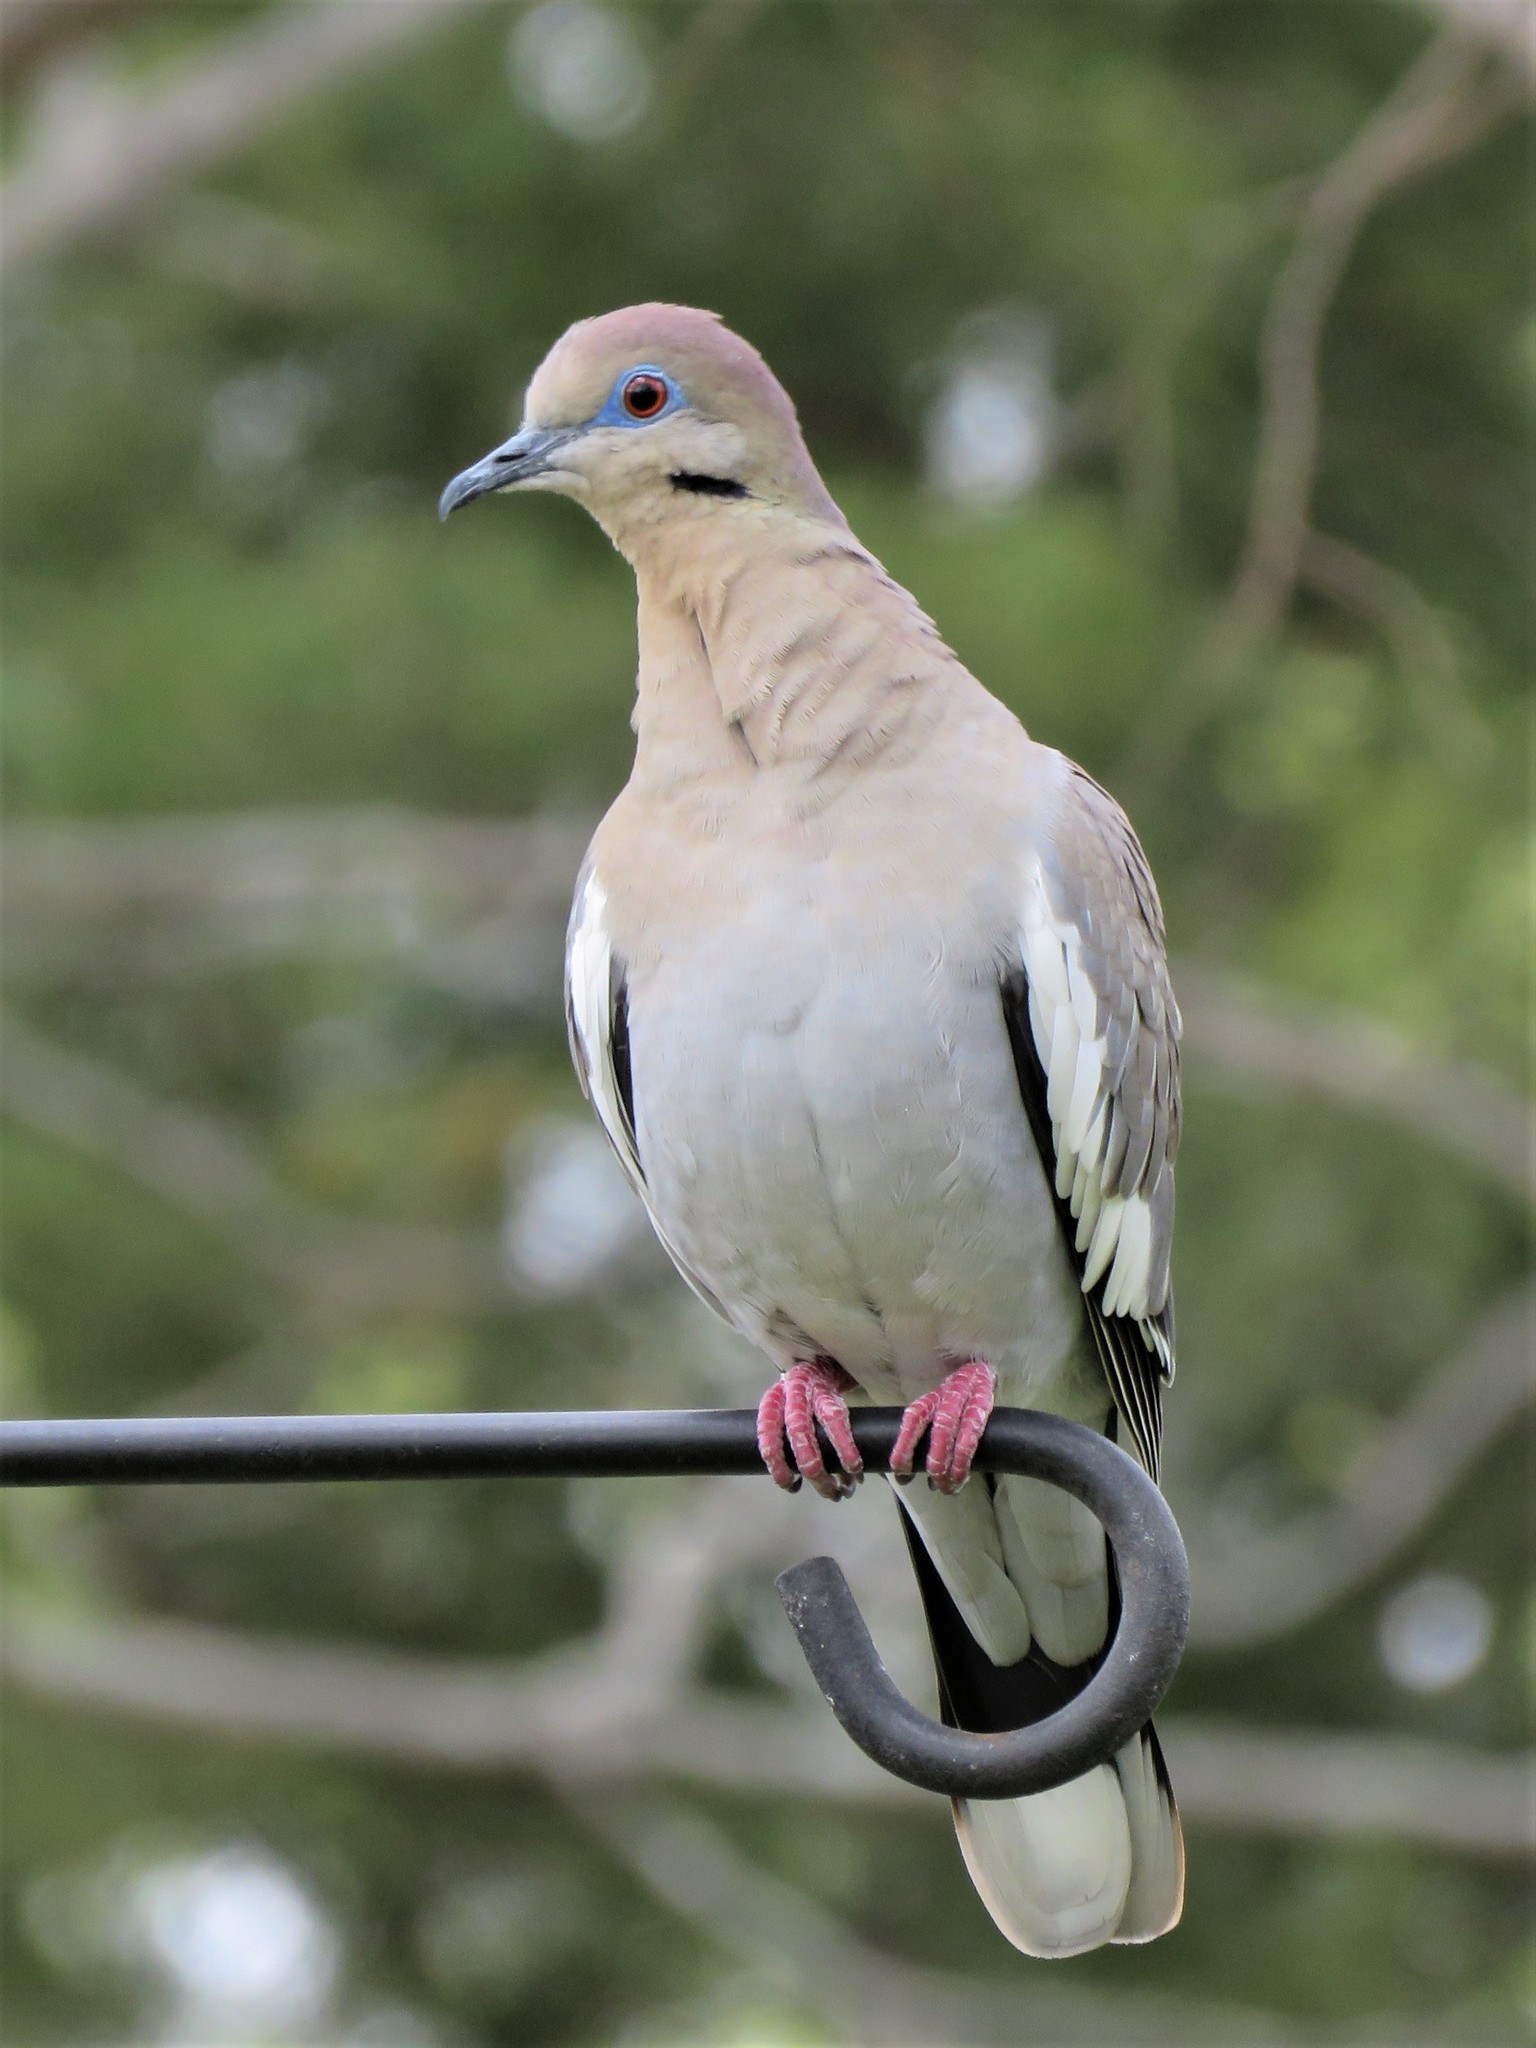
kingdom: Animalia
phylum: Chordata
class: Aves
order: Columbiformes
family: Columbidae
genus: Zenaida
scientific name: Zenaida asiatica
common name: White-winged dove
